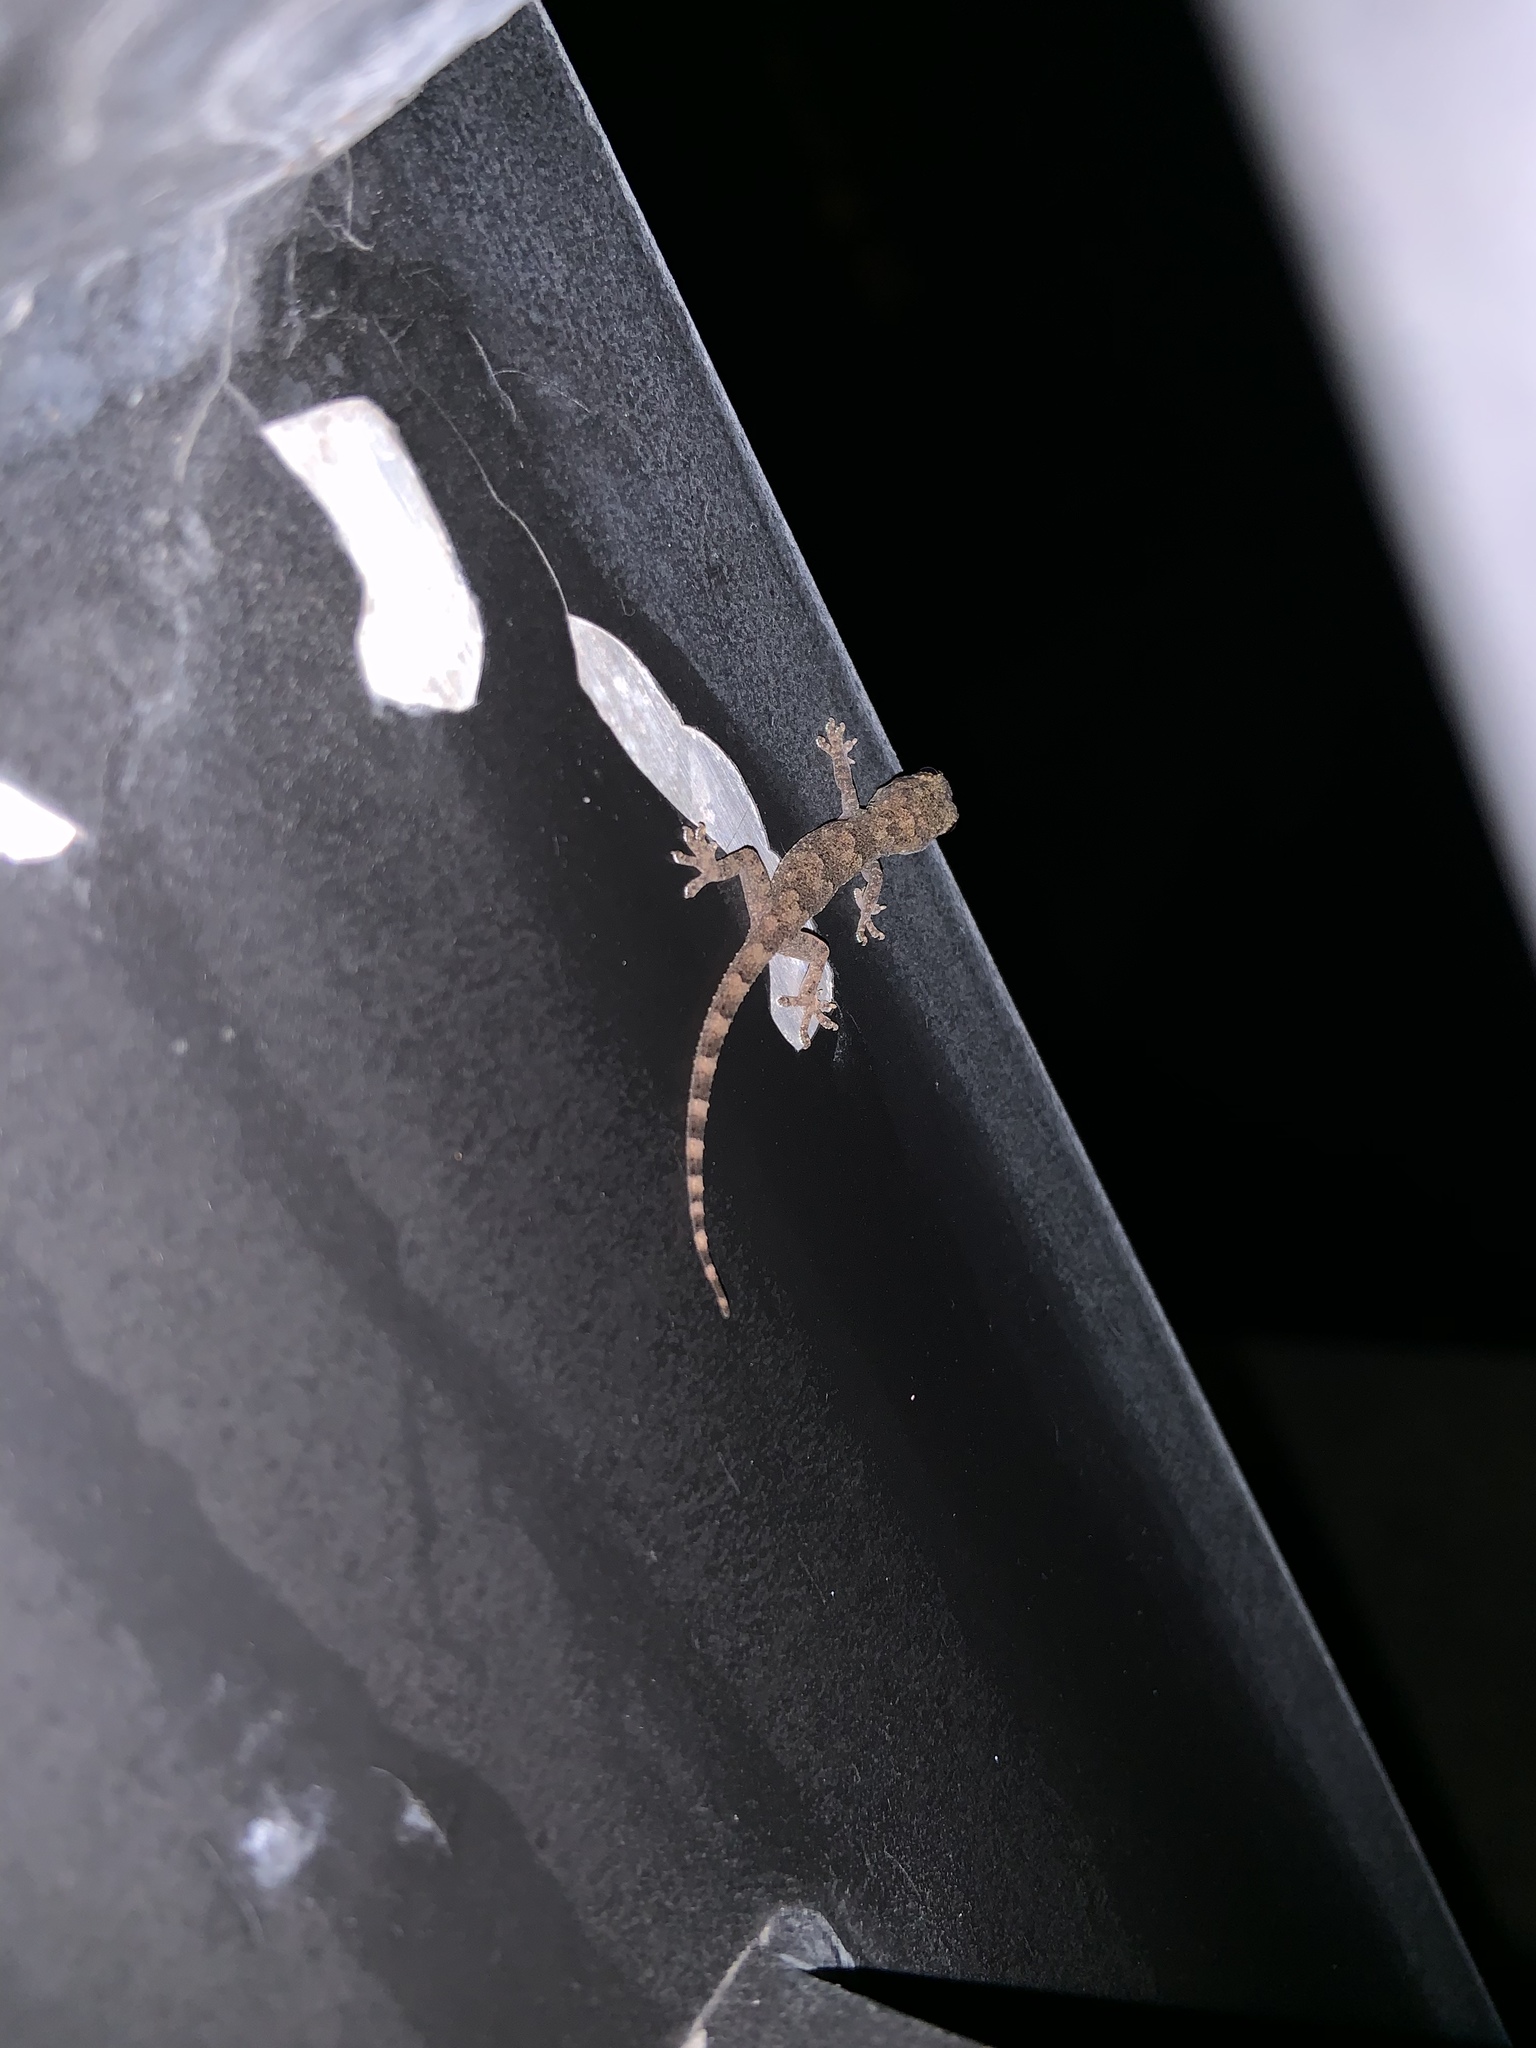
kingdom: Animalia
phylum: Chordata
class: Squamata
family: Gekkonidae
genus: Hemidactylus
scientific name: Hemidactylus mabouia
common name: House gecko
